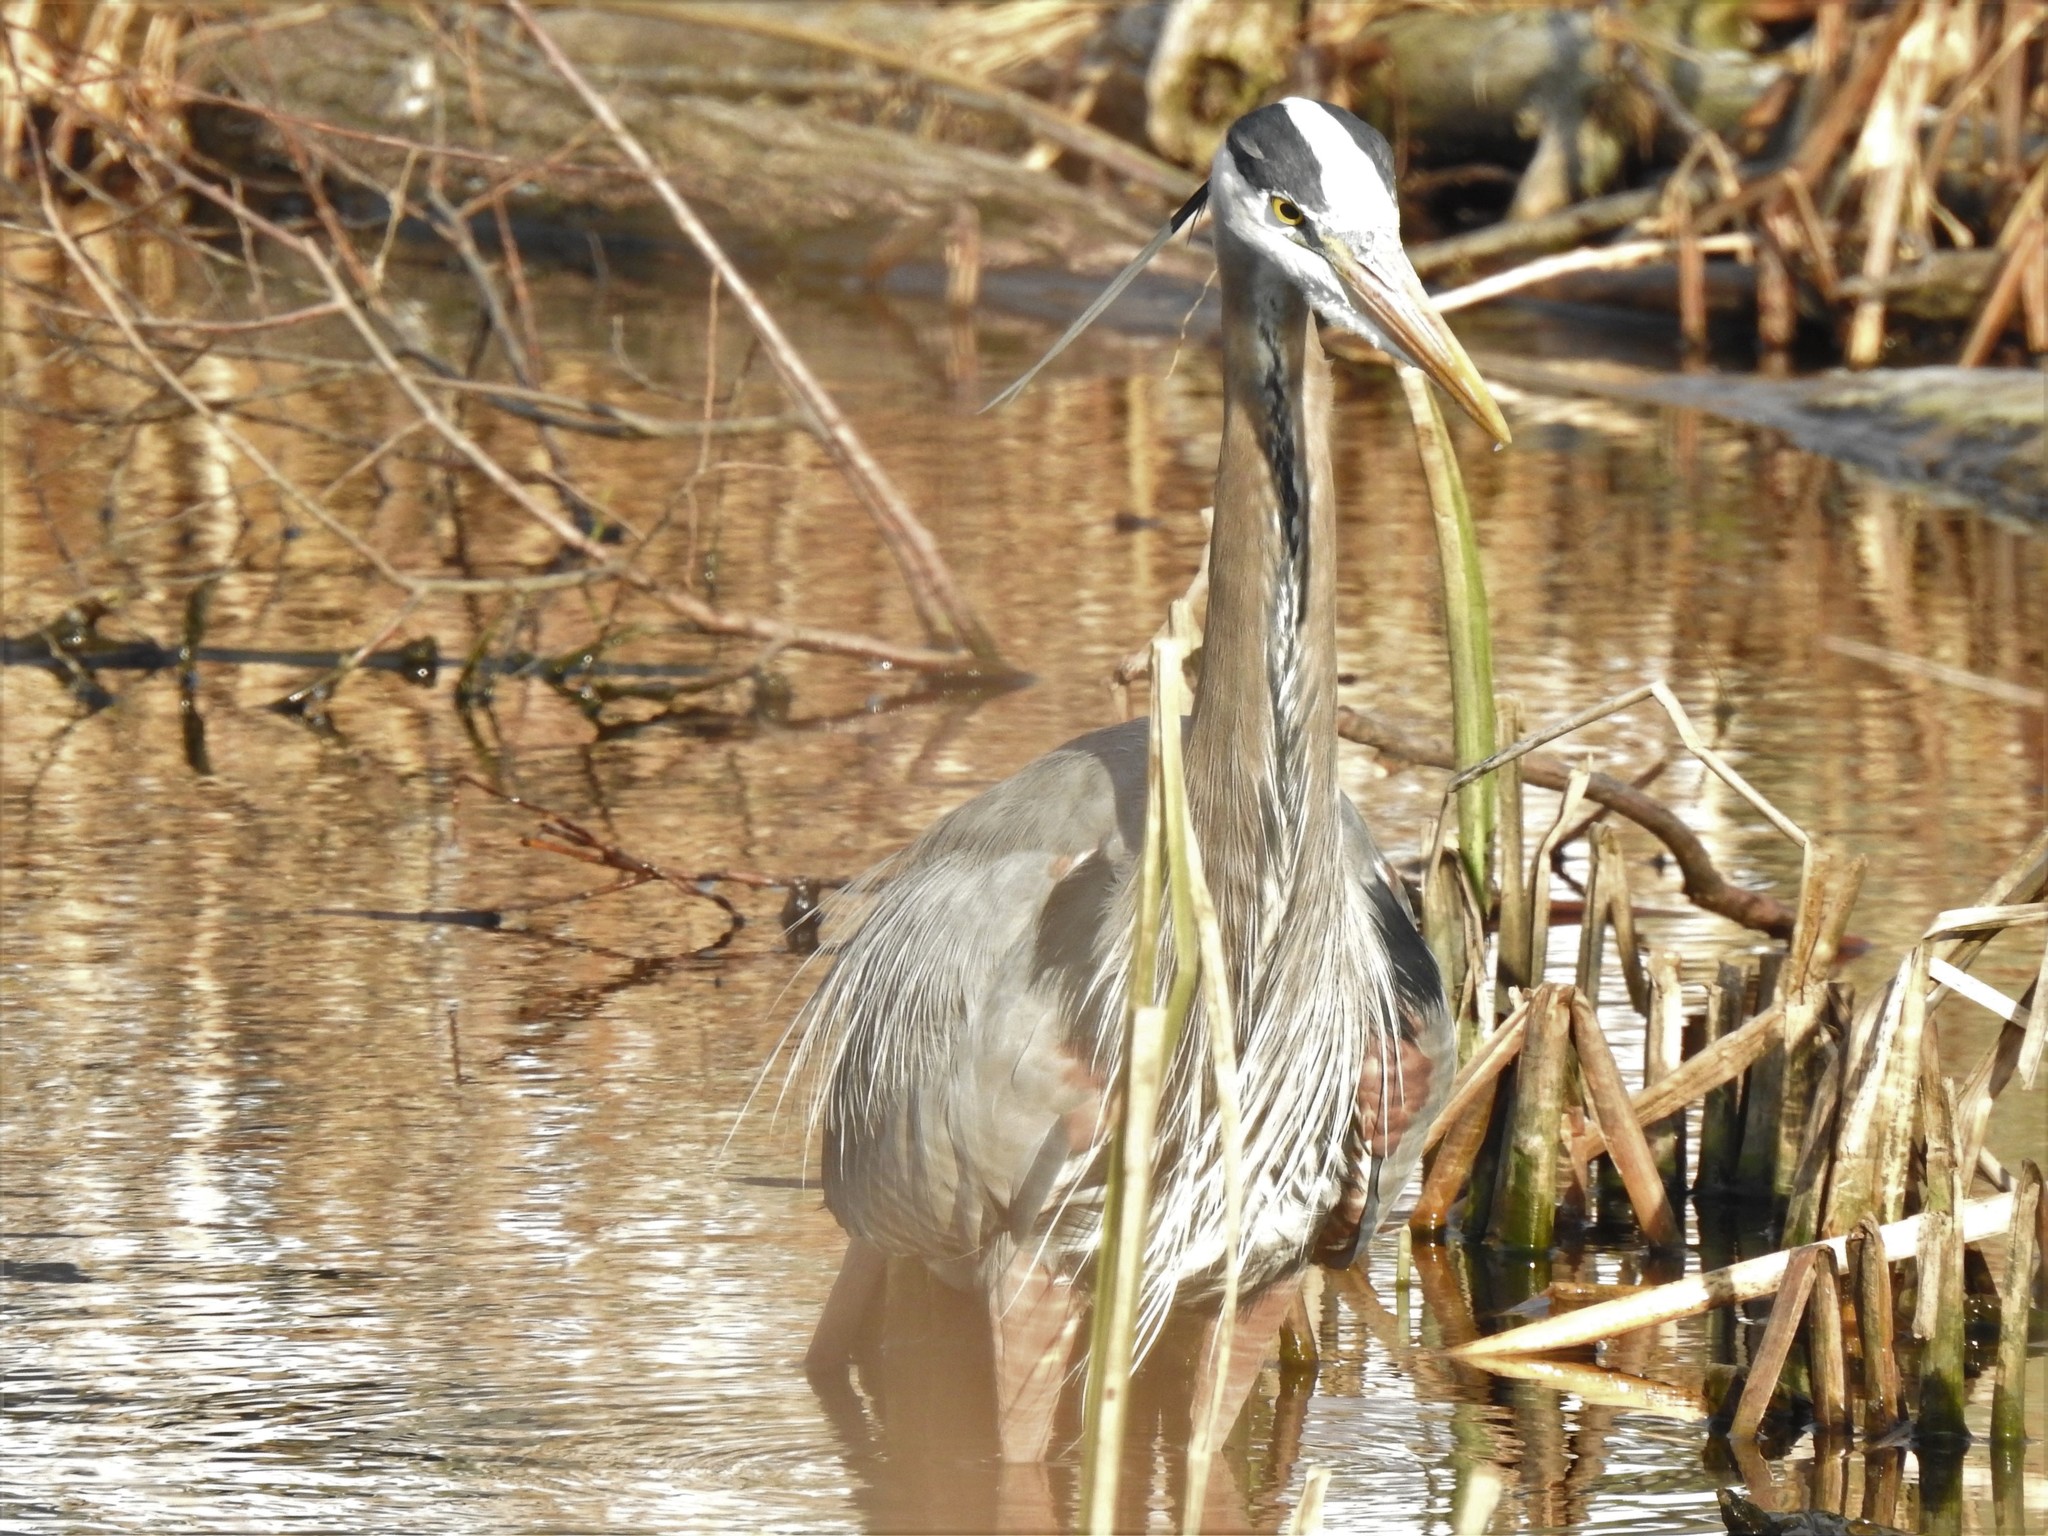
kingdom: Animalia
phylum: Chordata
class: Aves
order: Pelecaniformes
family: Ardeidae
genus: Ardea
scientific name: Ardea herodias
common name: Great blue heron
